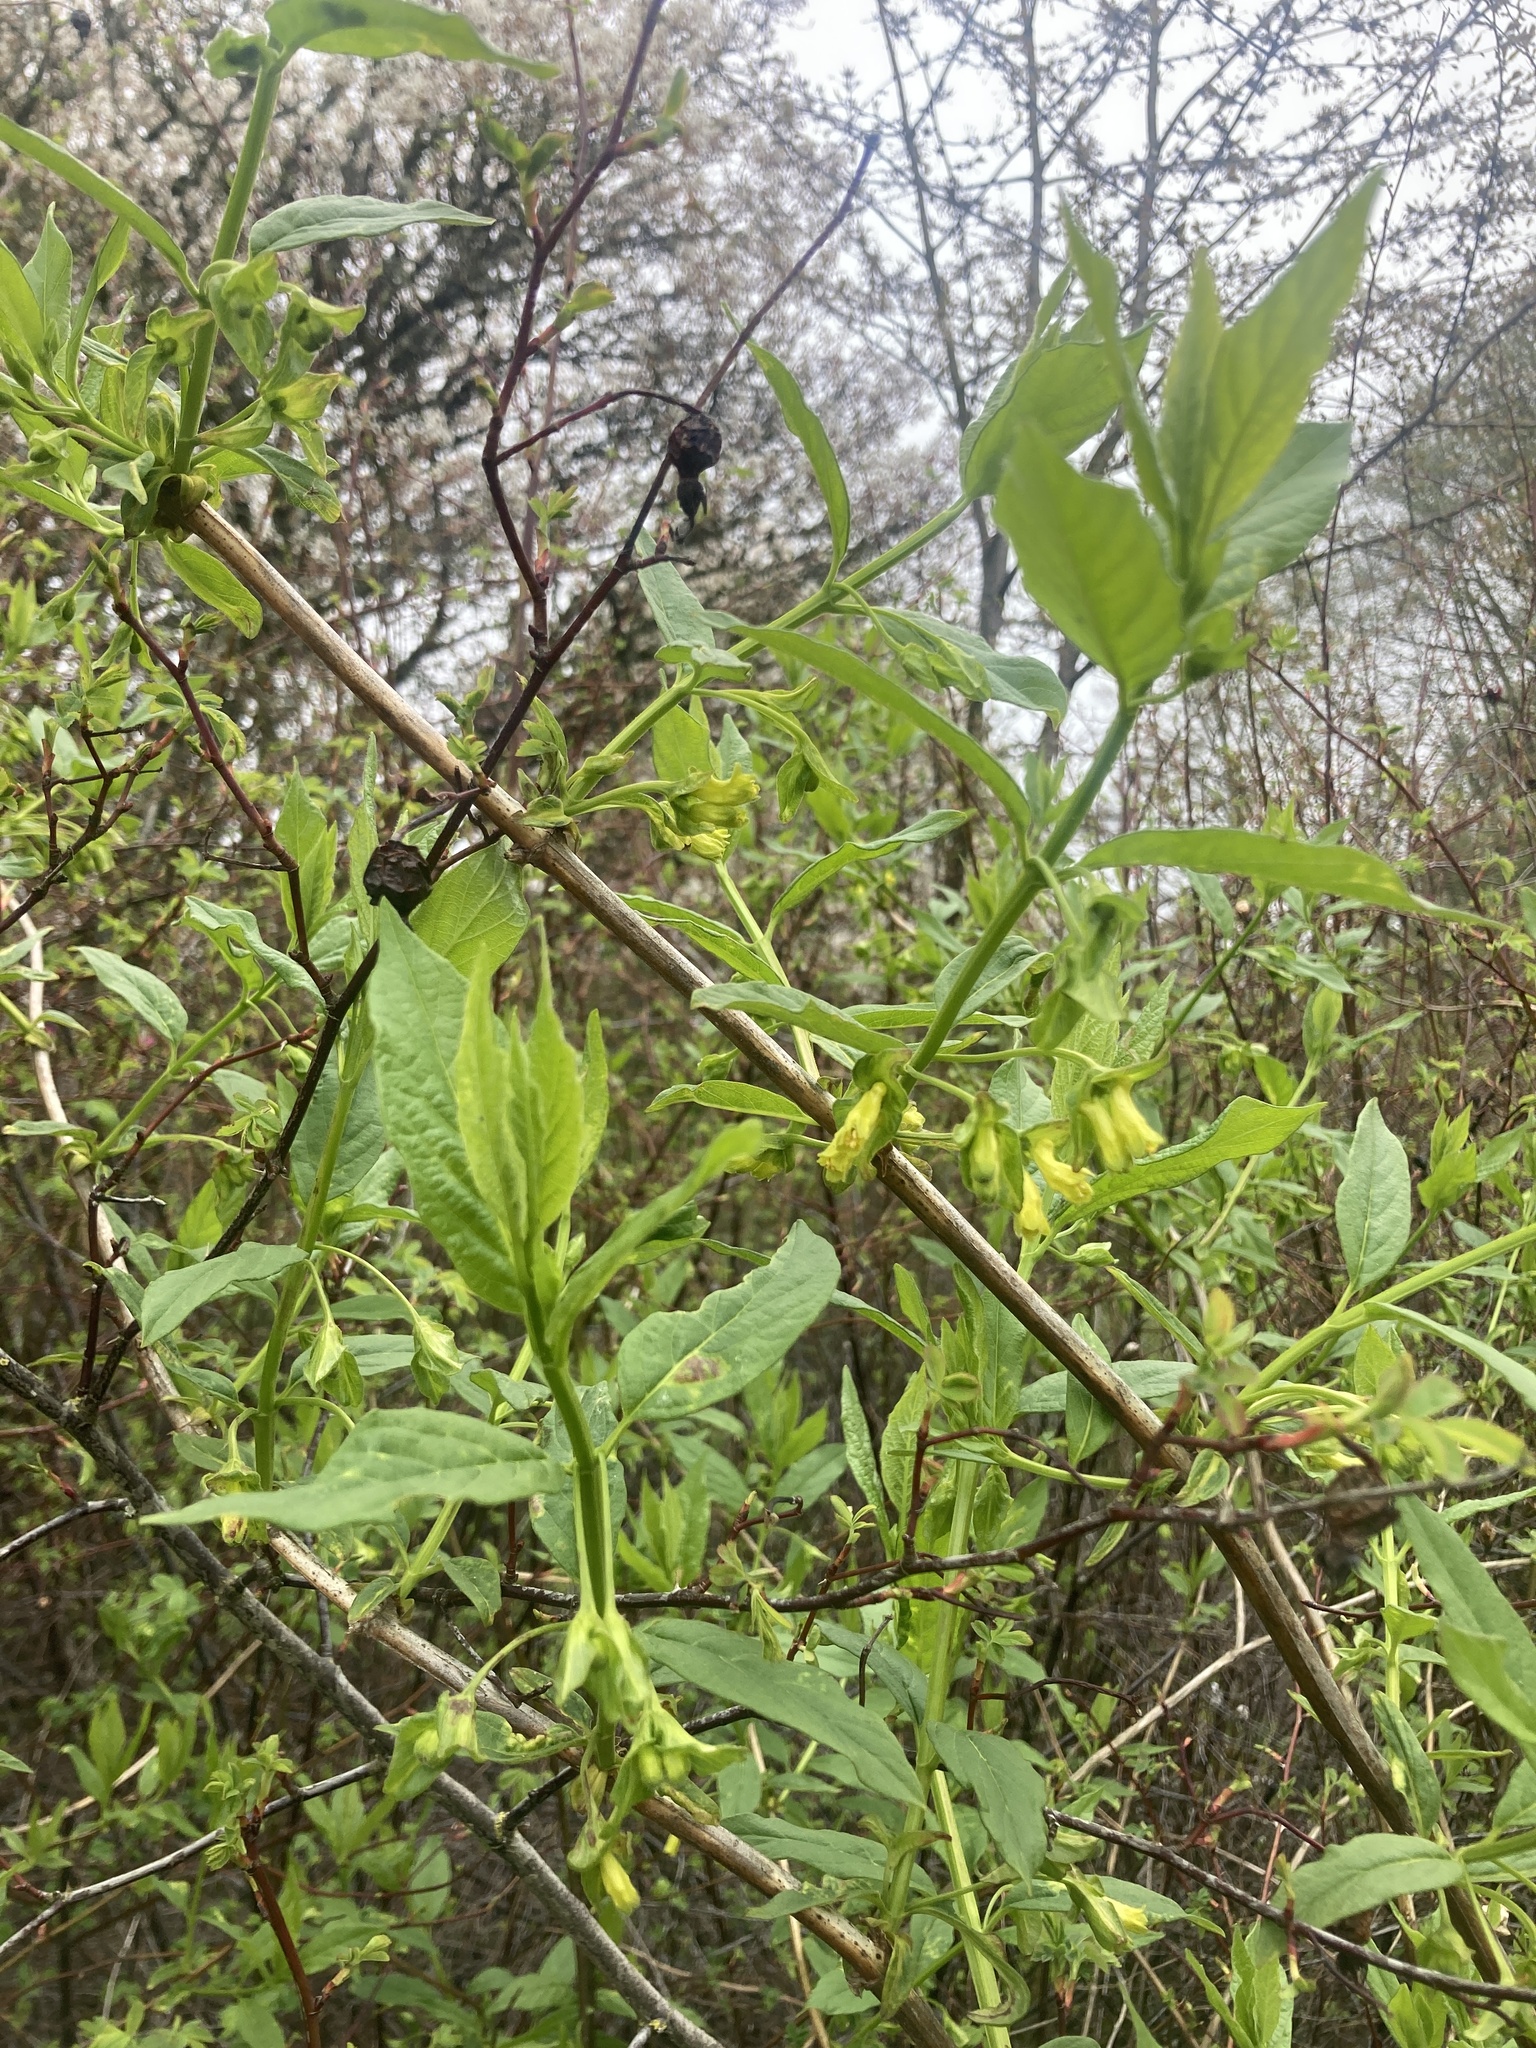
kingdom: Plantae
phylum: Tracheophyta
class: Magnoliopsida
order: Dipsacales
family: Caprifoliaceae
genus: Lonicera
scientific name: Lonicera involucrata
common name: Californian honeysuckle
